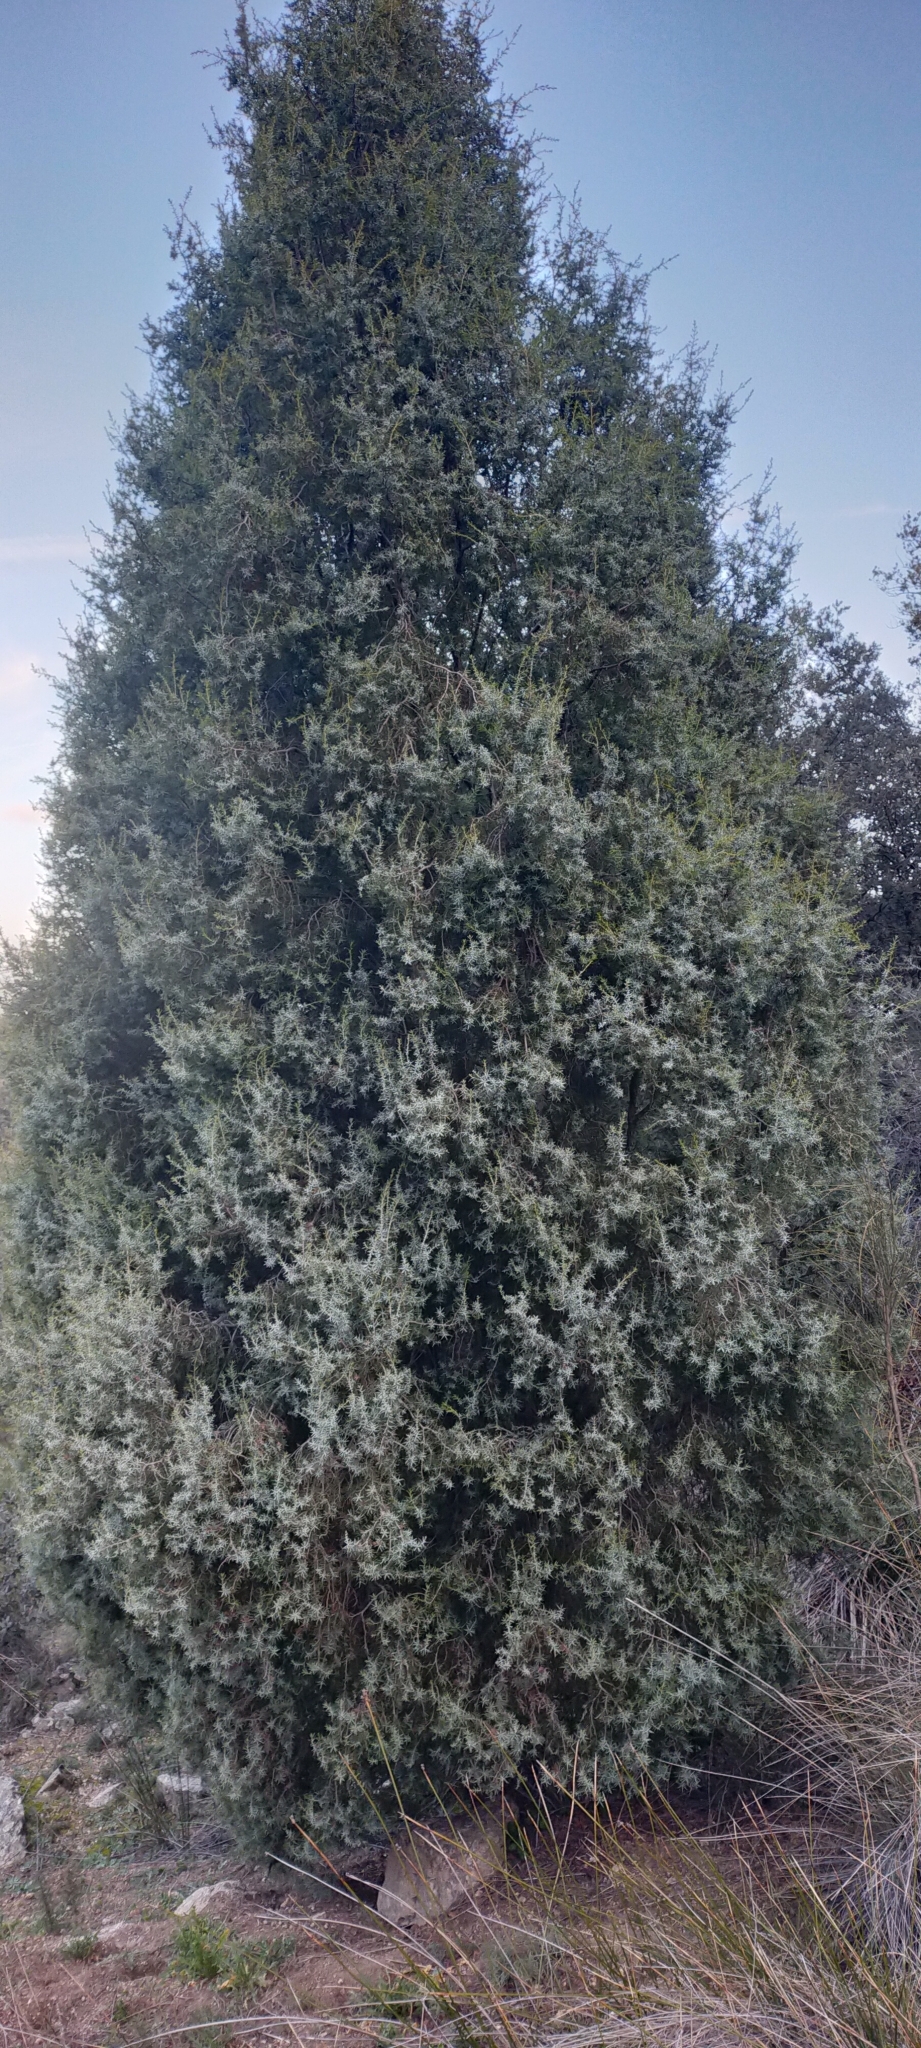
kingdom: Plantae
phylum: Tracheophyta
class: Pinopsida
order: Pinales
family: Cupressaceae
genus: Juniperus
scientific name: Juniperus oxycedrus
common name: Prickly juniper
